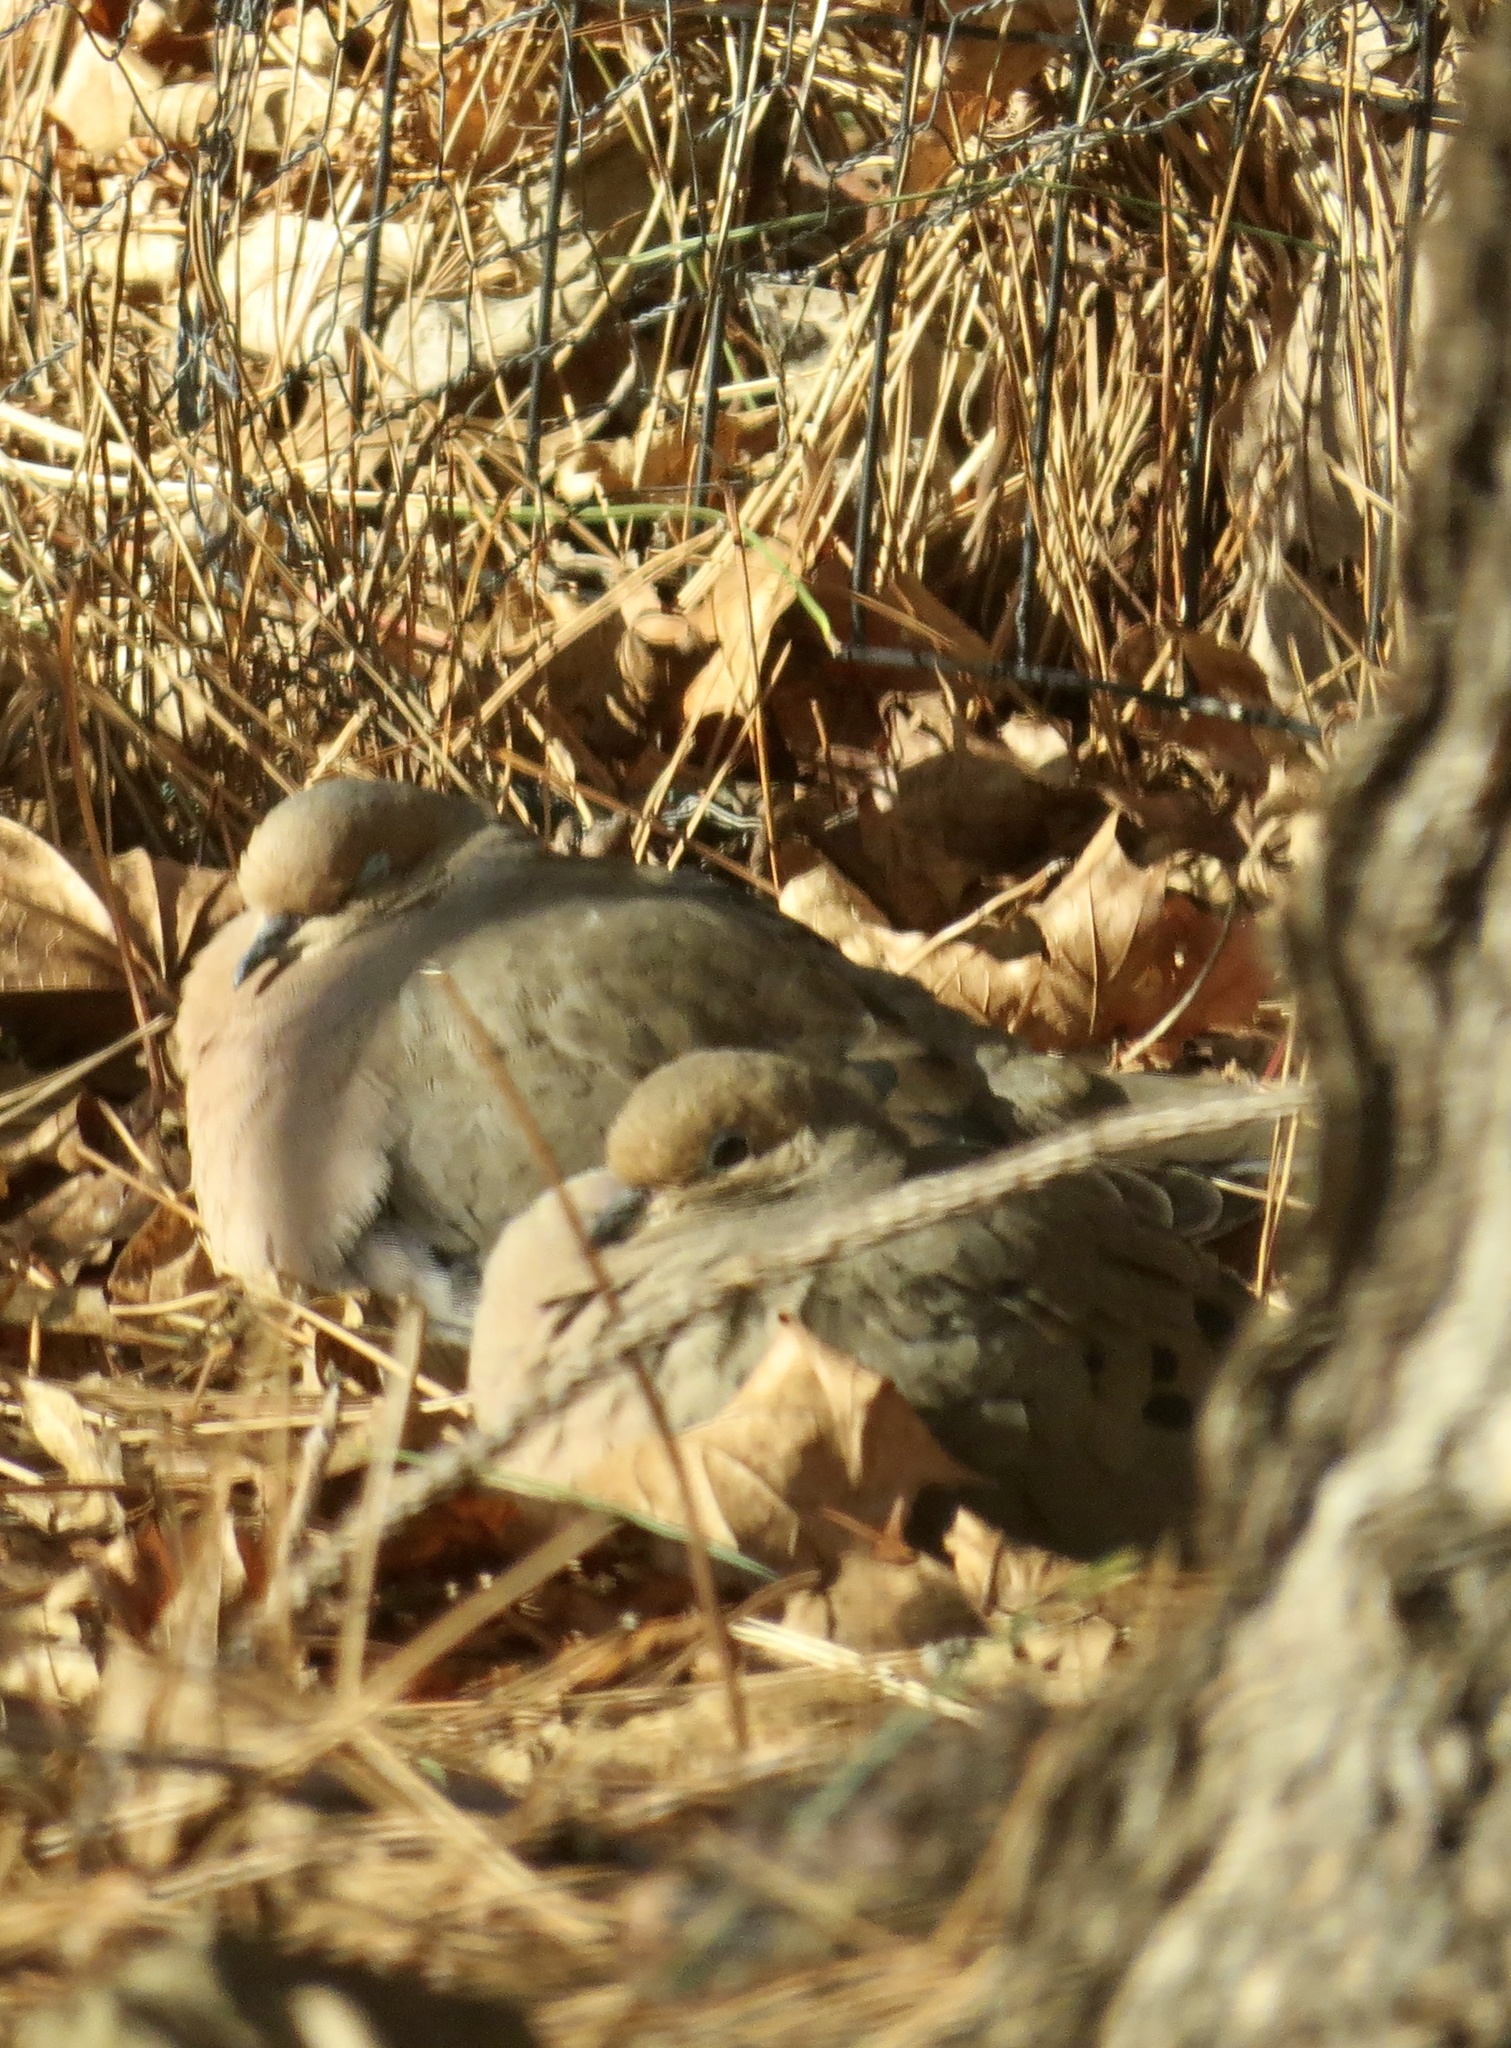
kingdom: Animalia
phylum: Chordata
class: Aves
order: Columbiformes
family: Columbidae
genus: Zenaida
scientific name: Zenaida macroura
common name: Mourning dove
